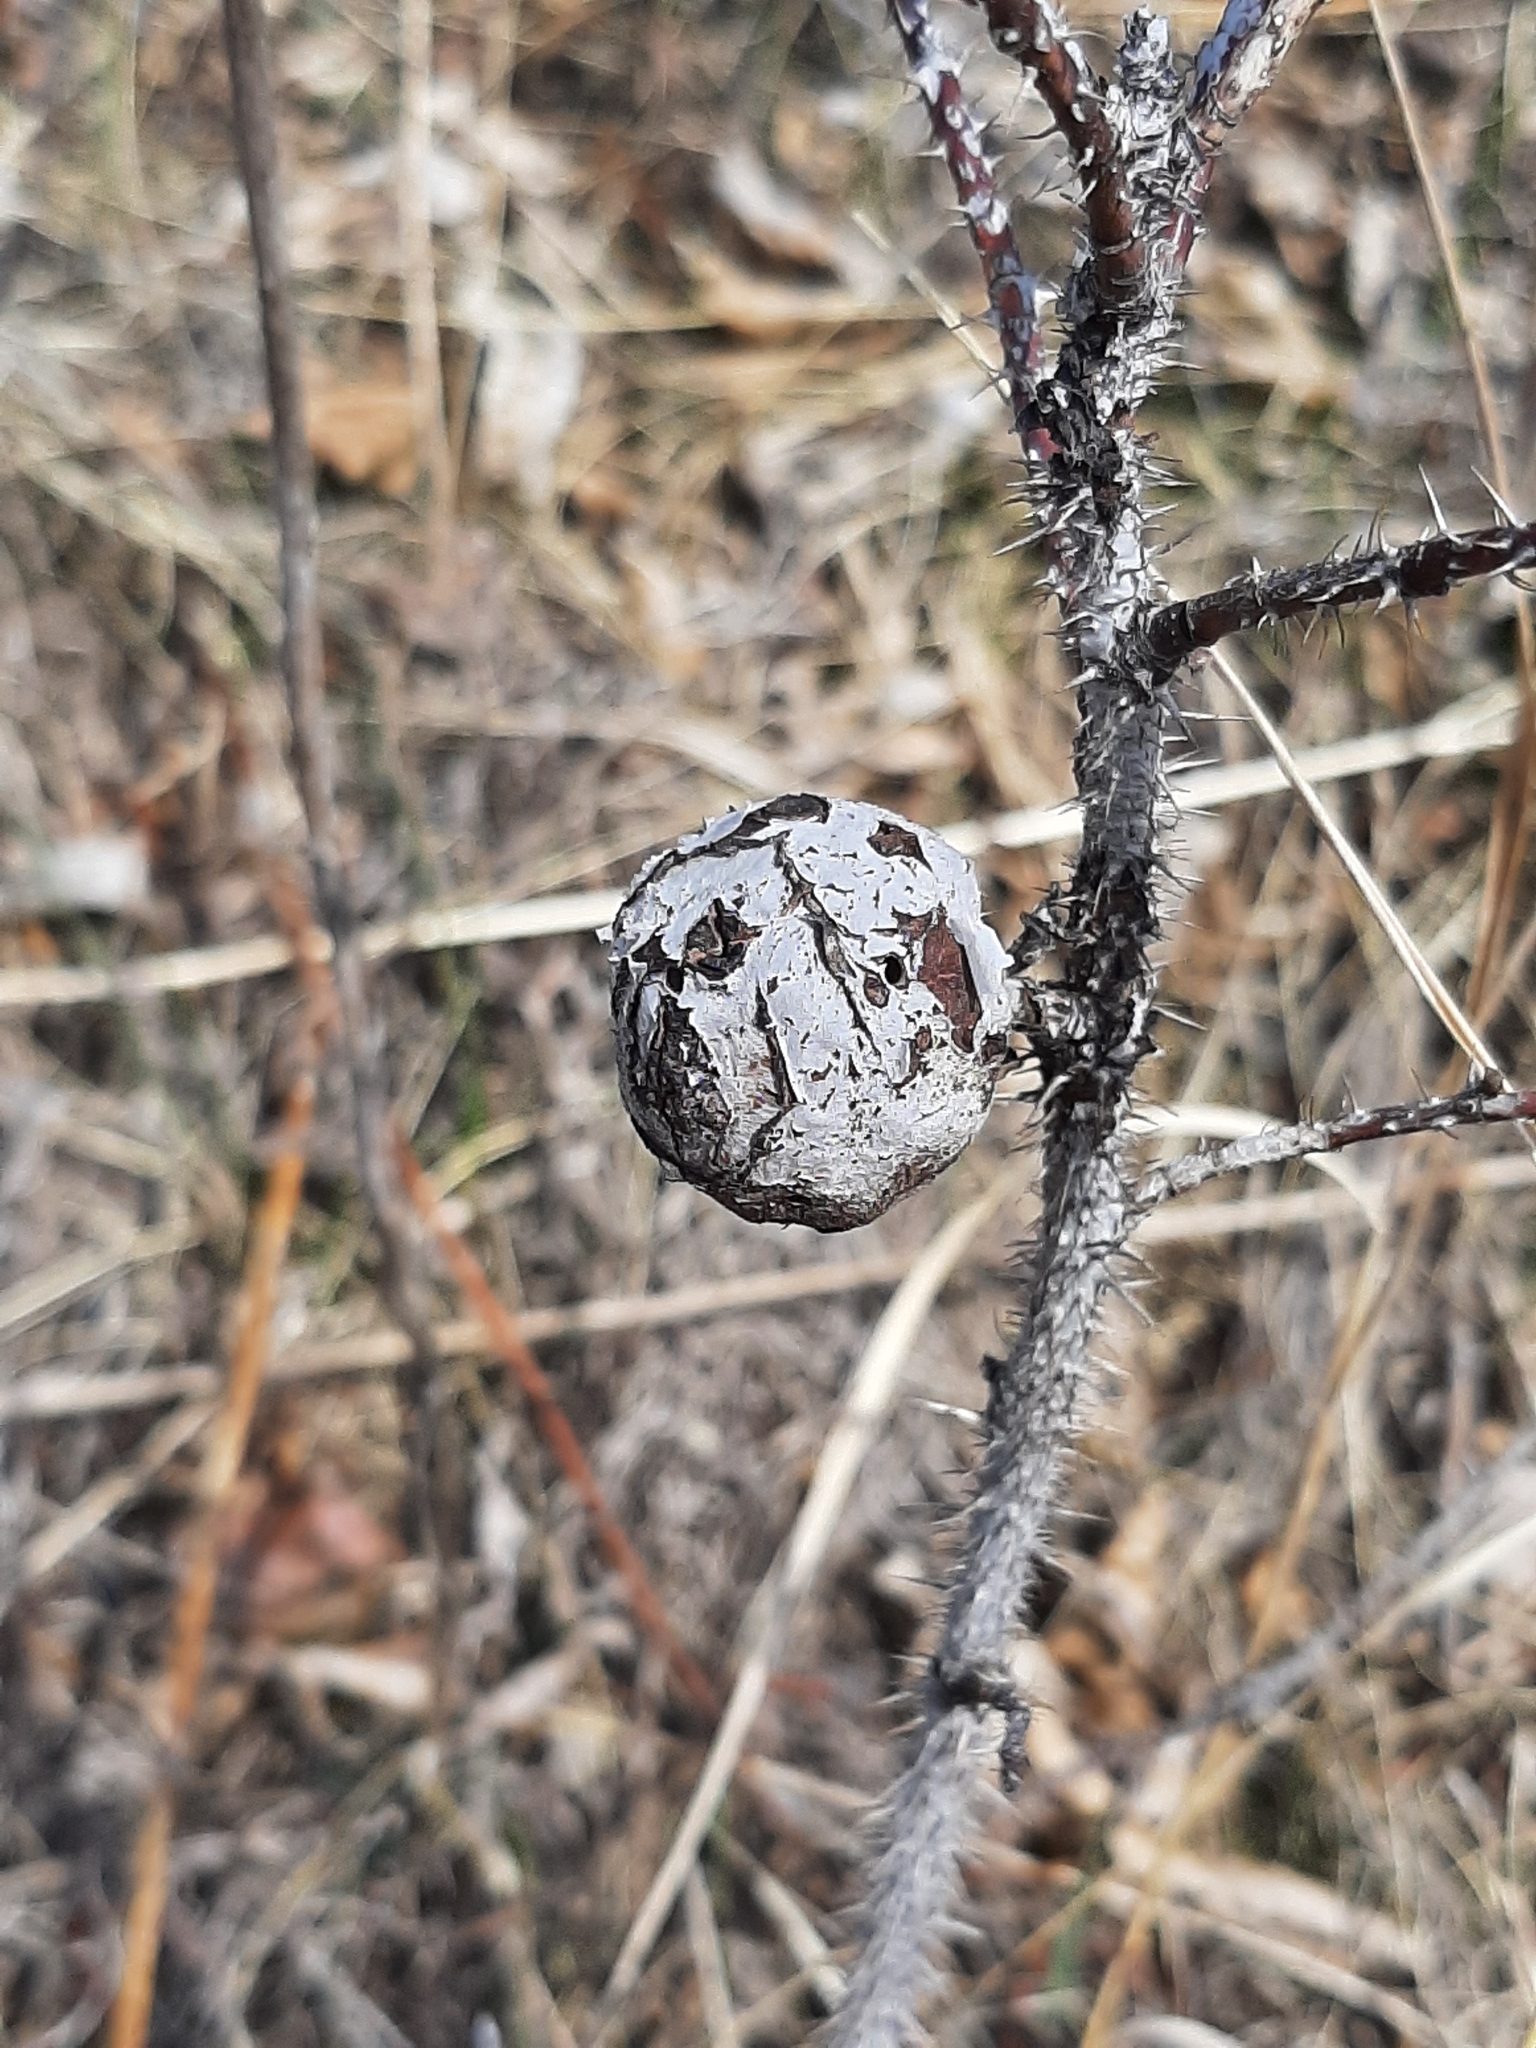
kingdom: Animalia
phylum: Arthropoda
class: Insecta
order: Hymenoptera
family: Cynipidae
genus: Diplolepis
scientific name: Diplolepis spinosa
